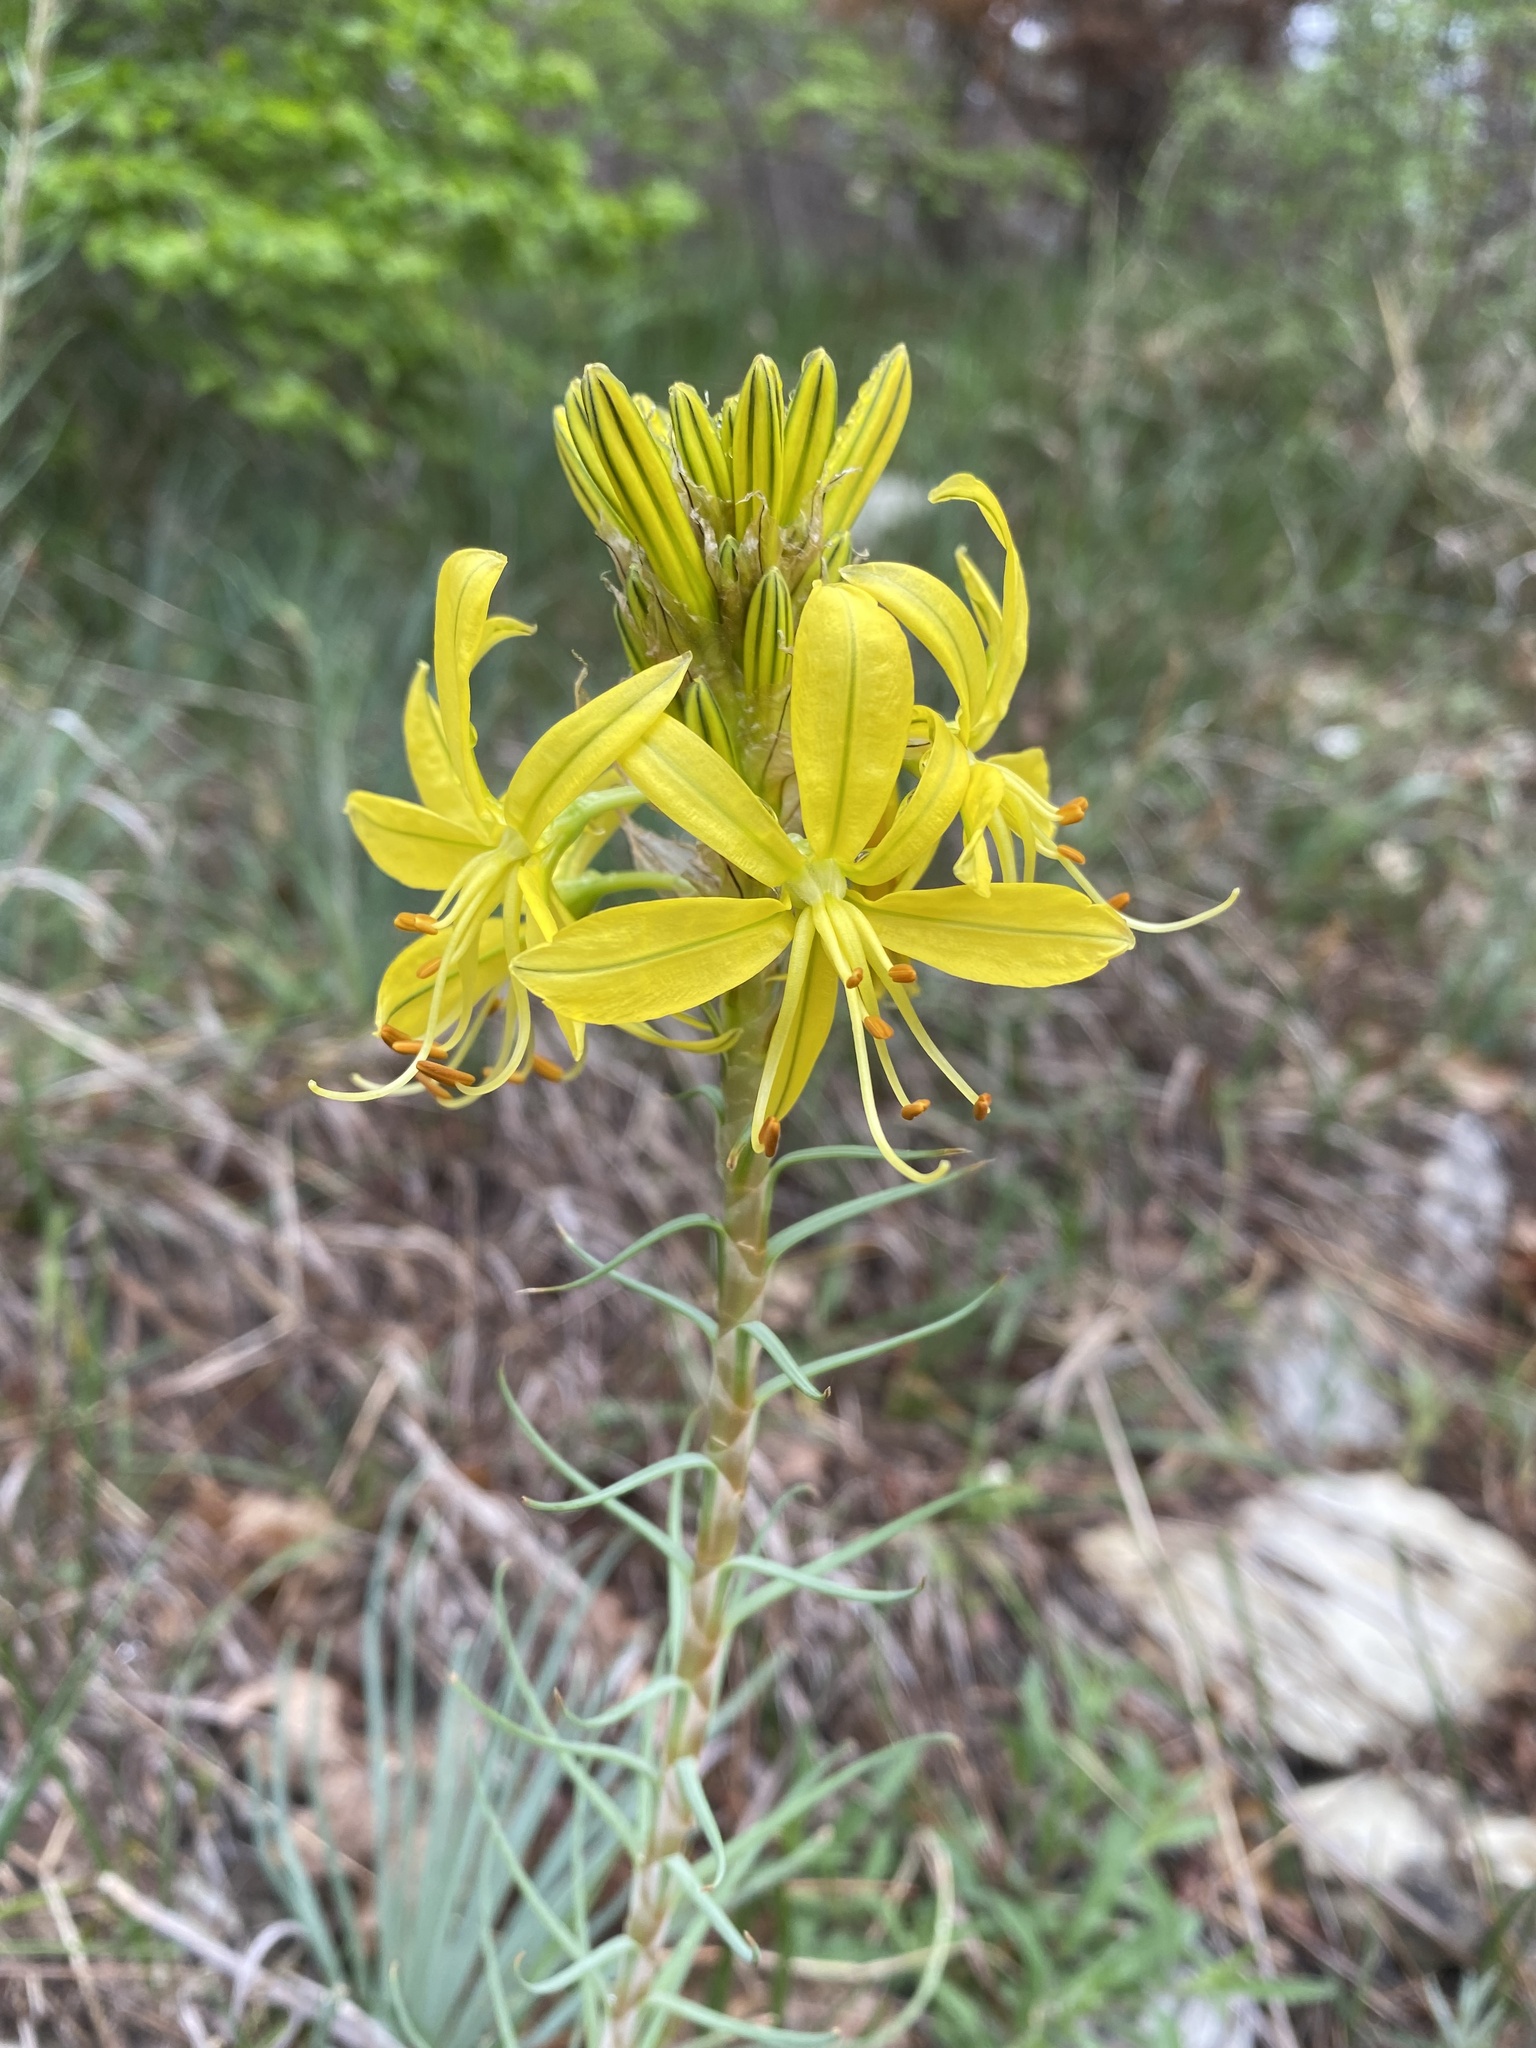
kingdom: Plantae
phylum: Tracheophyta
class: Liliopsida
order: Asparagales
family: Asphodelaceae
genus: Asphodeline
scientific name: Asphodeline lutea
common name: Yellow asphodel
